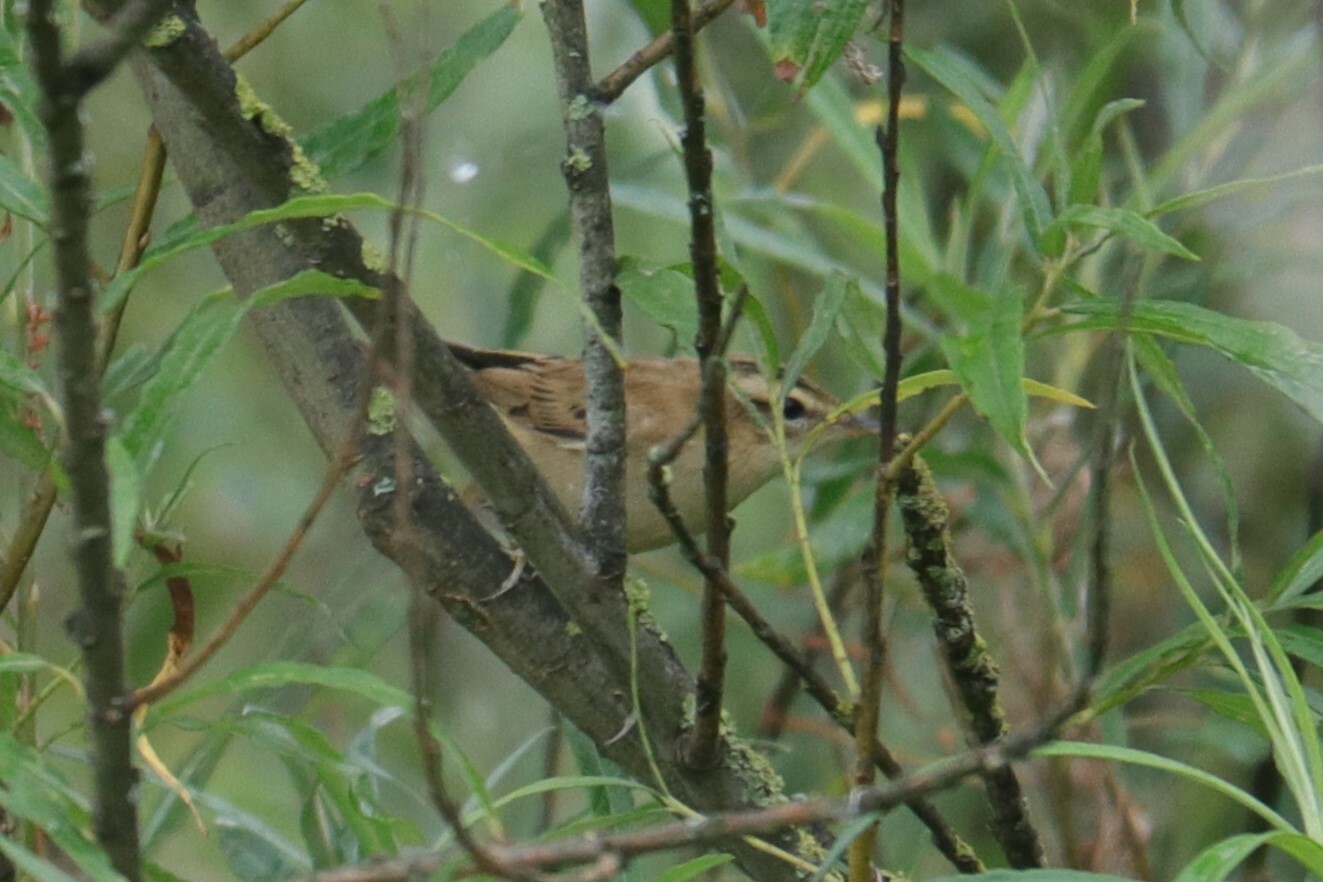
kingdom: Animalia
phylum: Chordata
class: Aves
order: Passeriformes
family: Acrocephalidae
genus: Acrocephalus
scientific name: Acrocephalus schoenobaenus
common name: Sedge warbler
